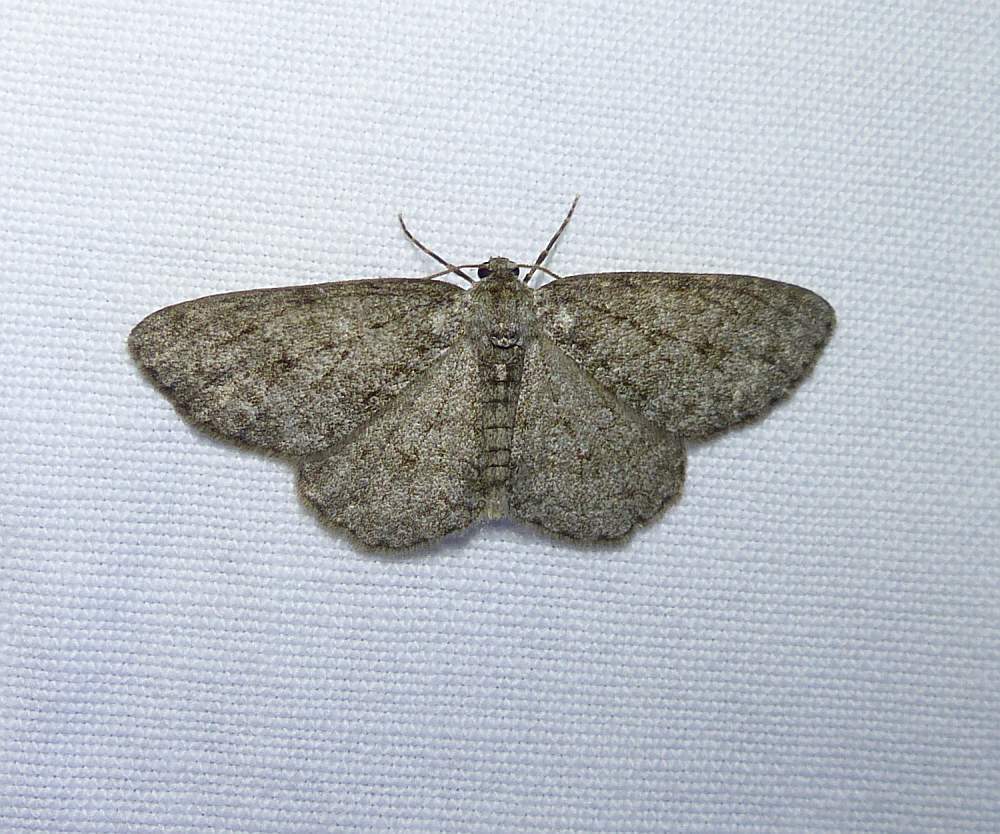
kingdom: Animalia
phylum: Arthropoda
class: Insecta
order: Lepidoptera
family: Geometridae
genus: Ectropis
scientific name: Ectropis crepuscularia
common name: Engrailed
